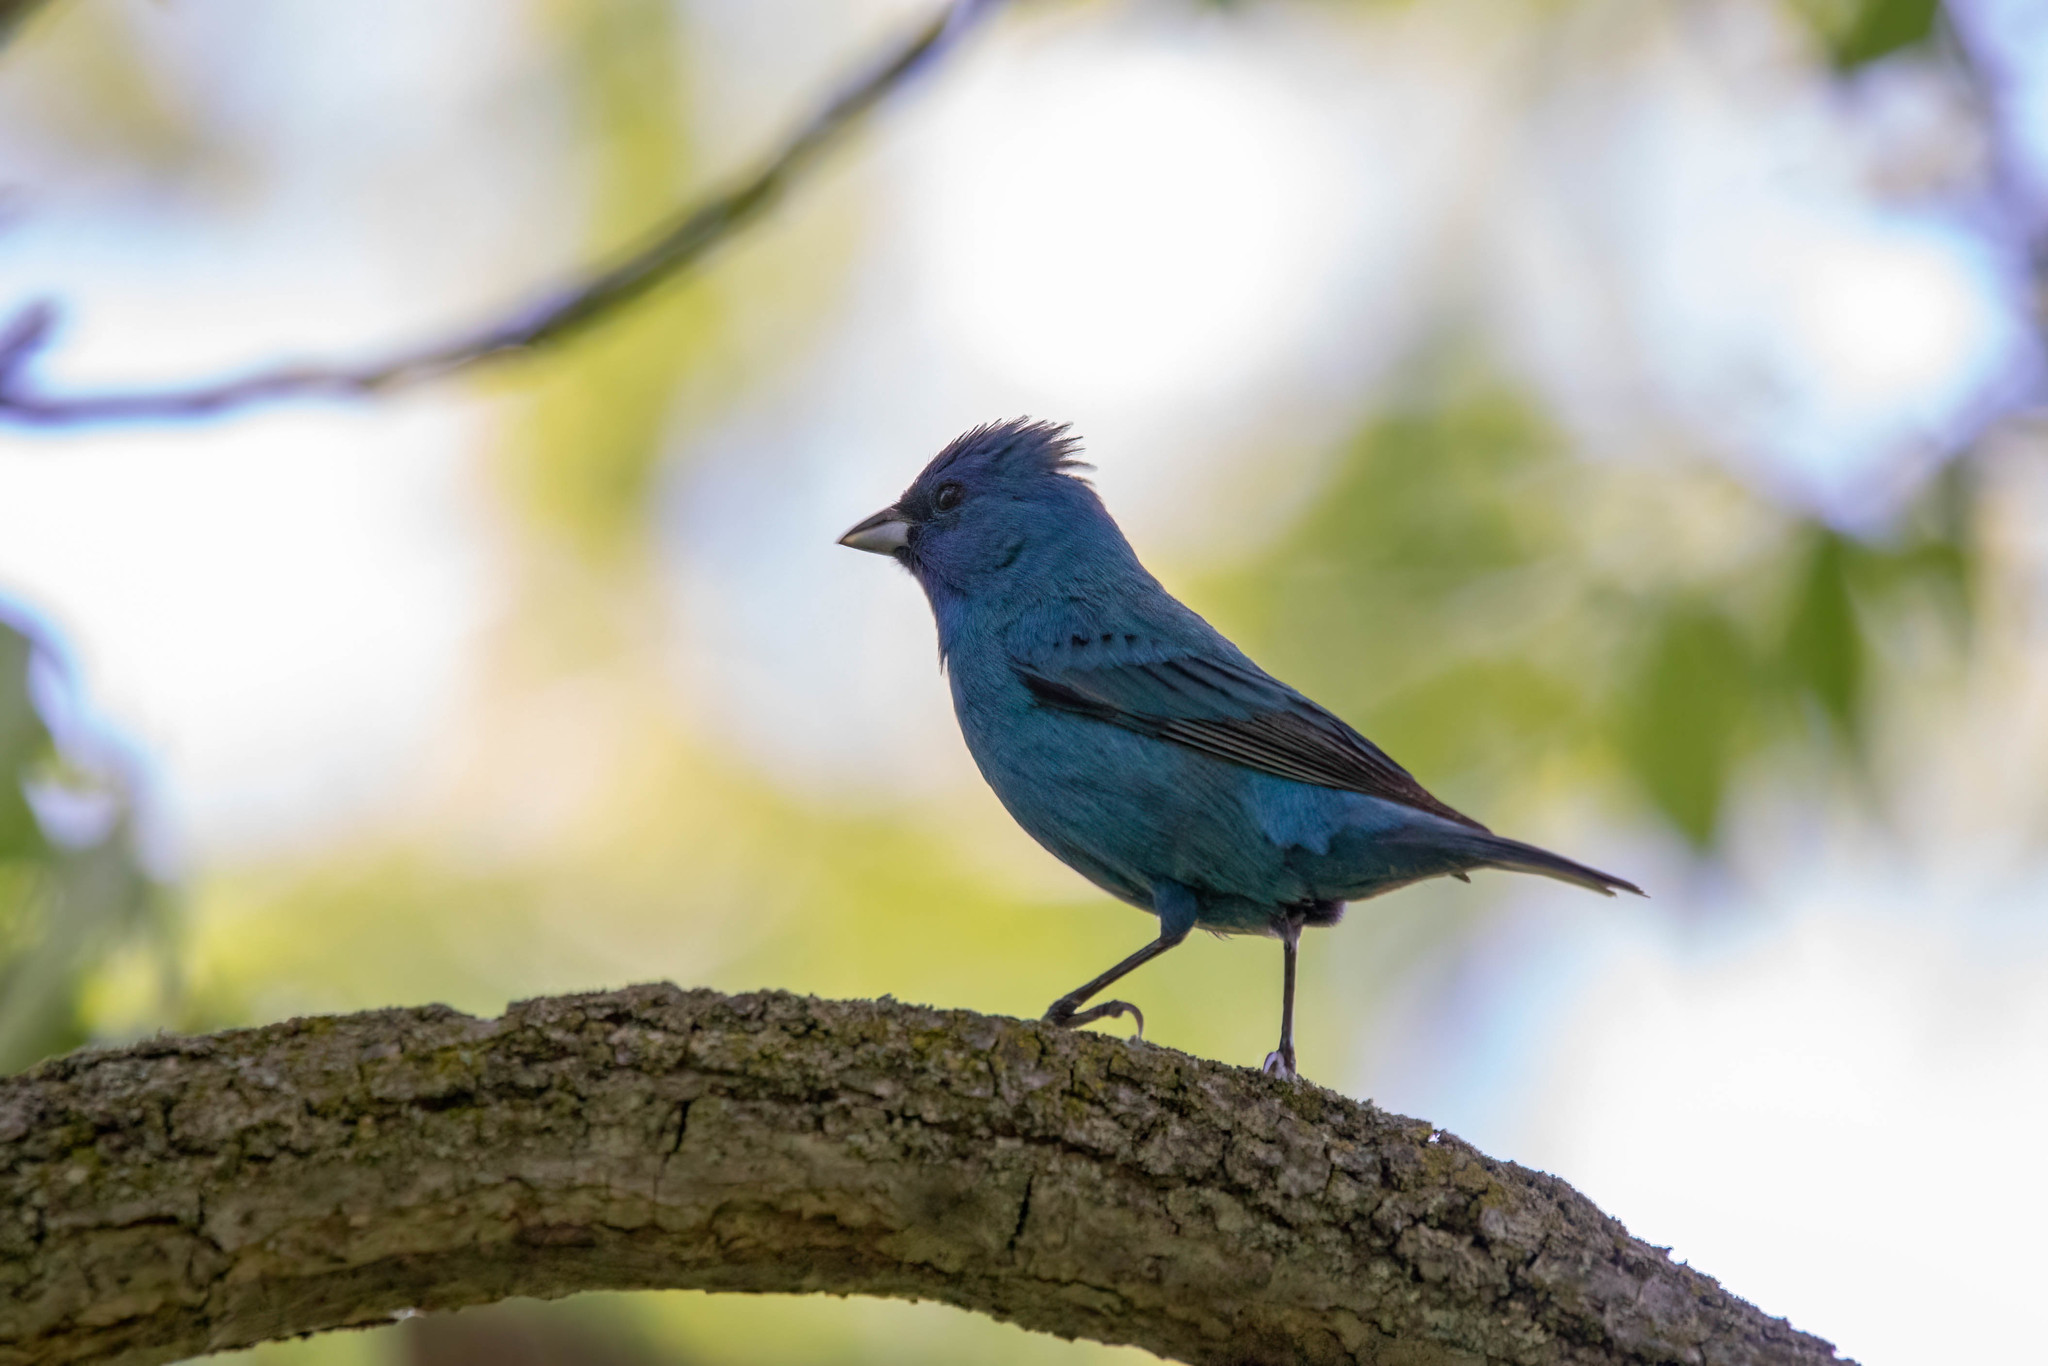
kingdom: Animalia
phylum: Chordata
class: Aves
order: Passeriformes
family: Cardinalidae
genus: Passerina
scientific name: Passerina cyanea
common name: Indigo bunting
